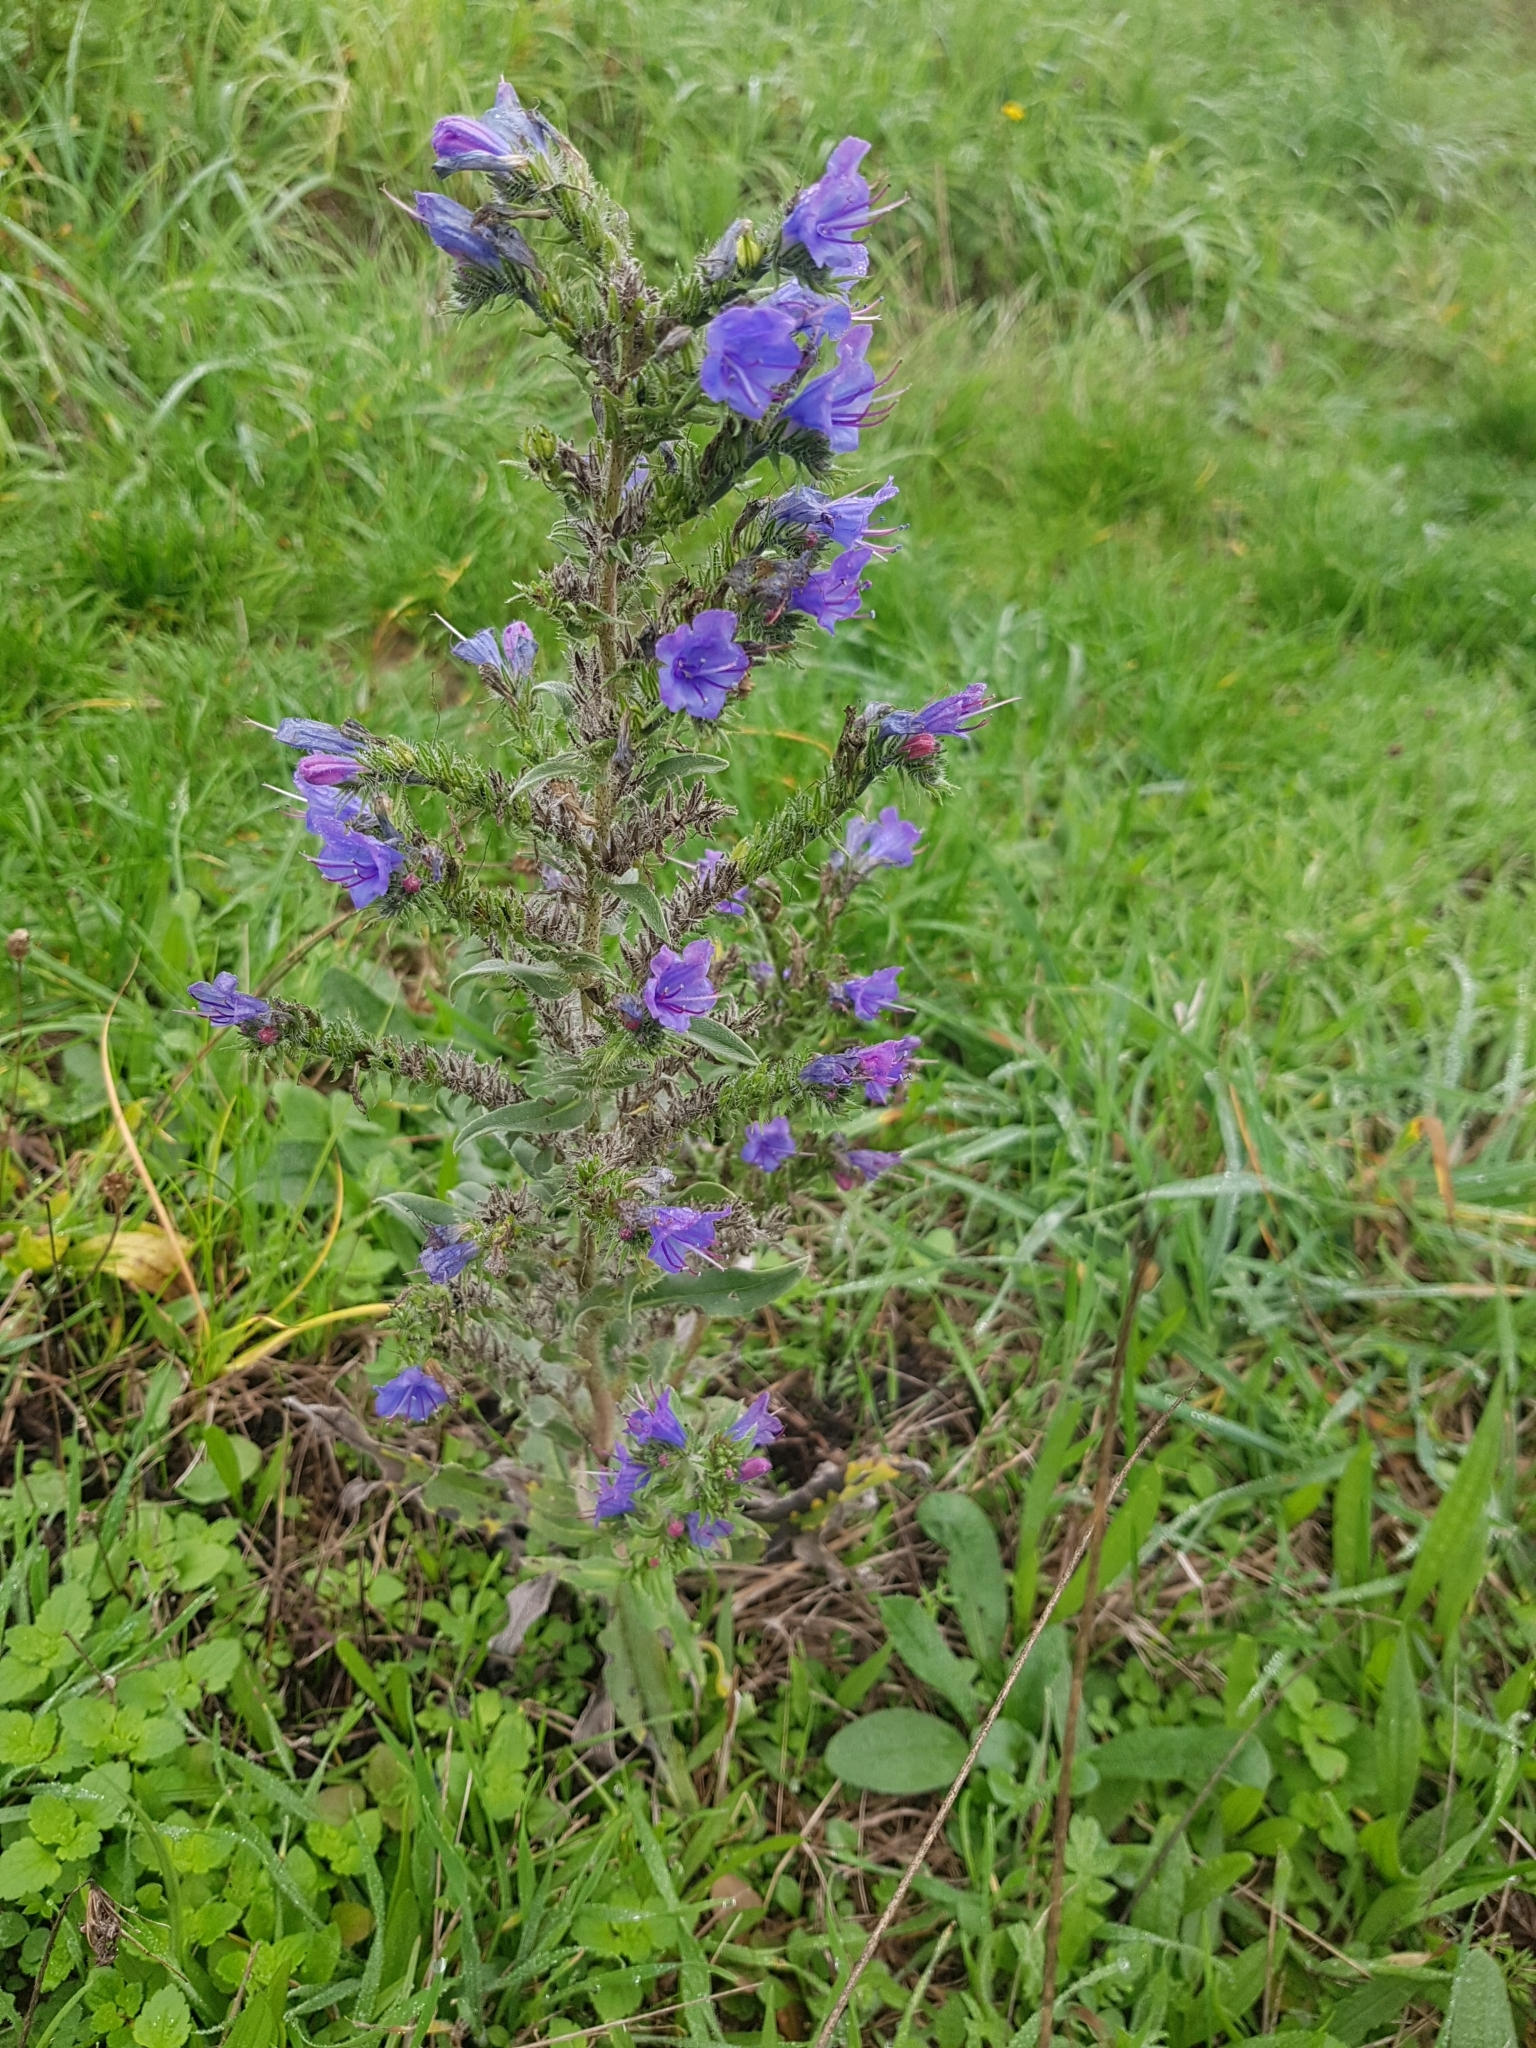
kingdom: Plantae
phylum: Tracheophyta
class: Magnoliopsida
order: Boraginales
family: Boraginaceae
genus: Echium
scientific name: Echium vulgare
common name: Common viper's bugloss
